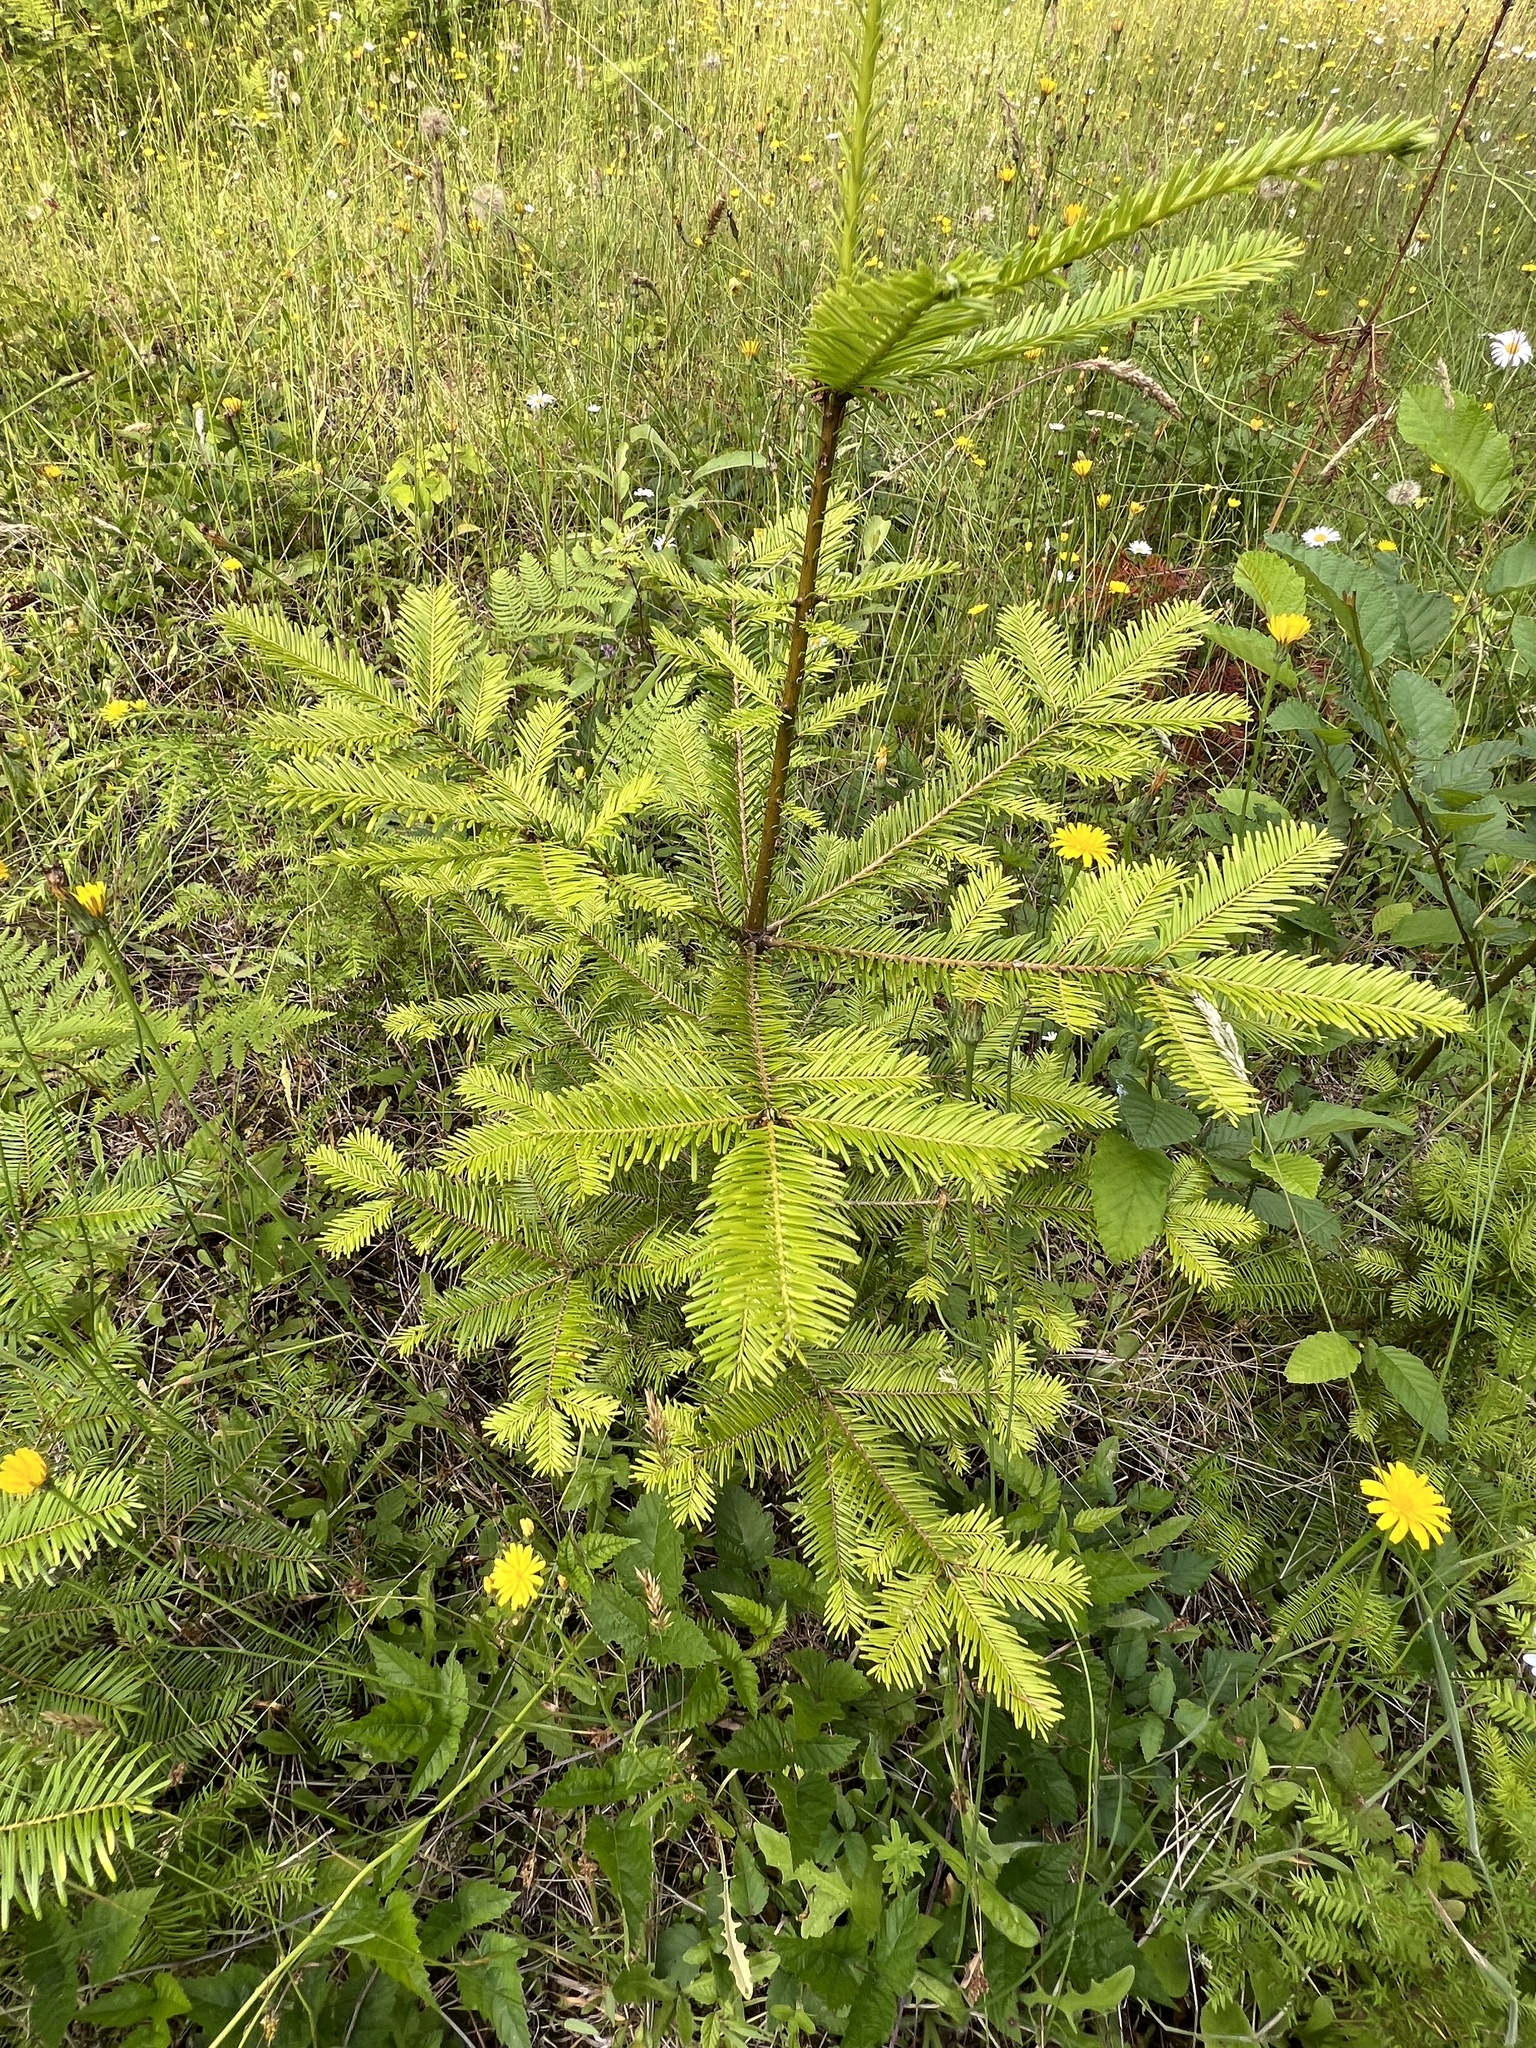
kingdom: Plantae
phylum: Tracheophyta
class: Pinopsida
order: Pinales
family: Pinaceae
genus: Abies
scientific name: Abies grandis
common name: Giant fir
